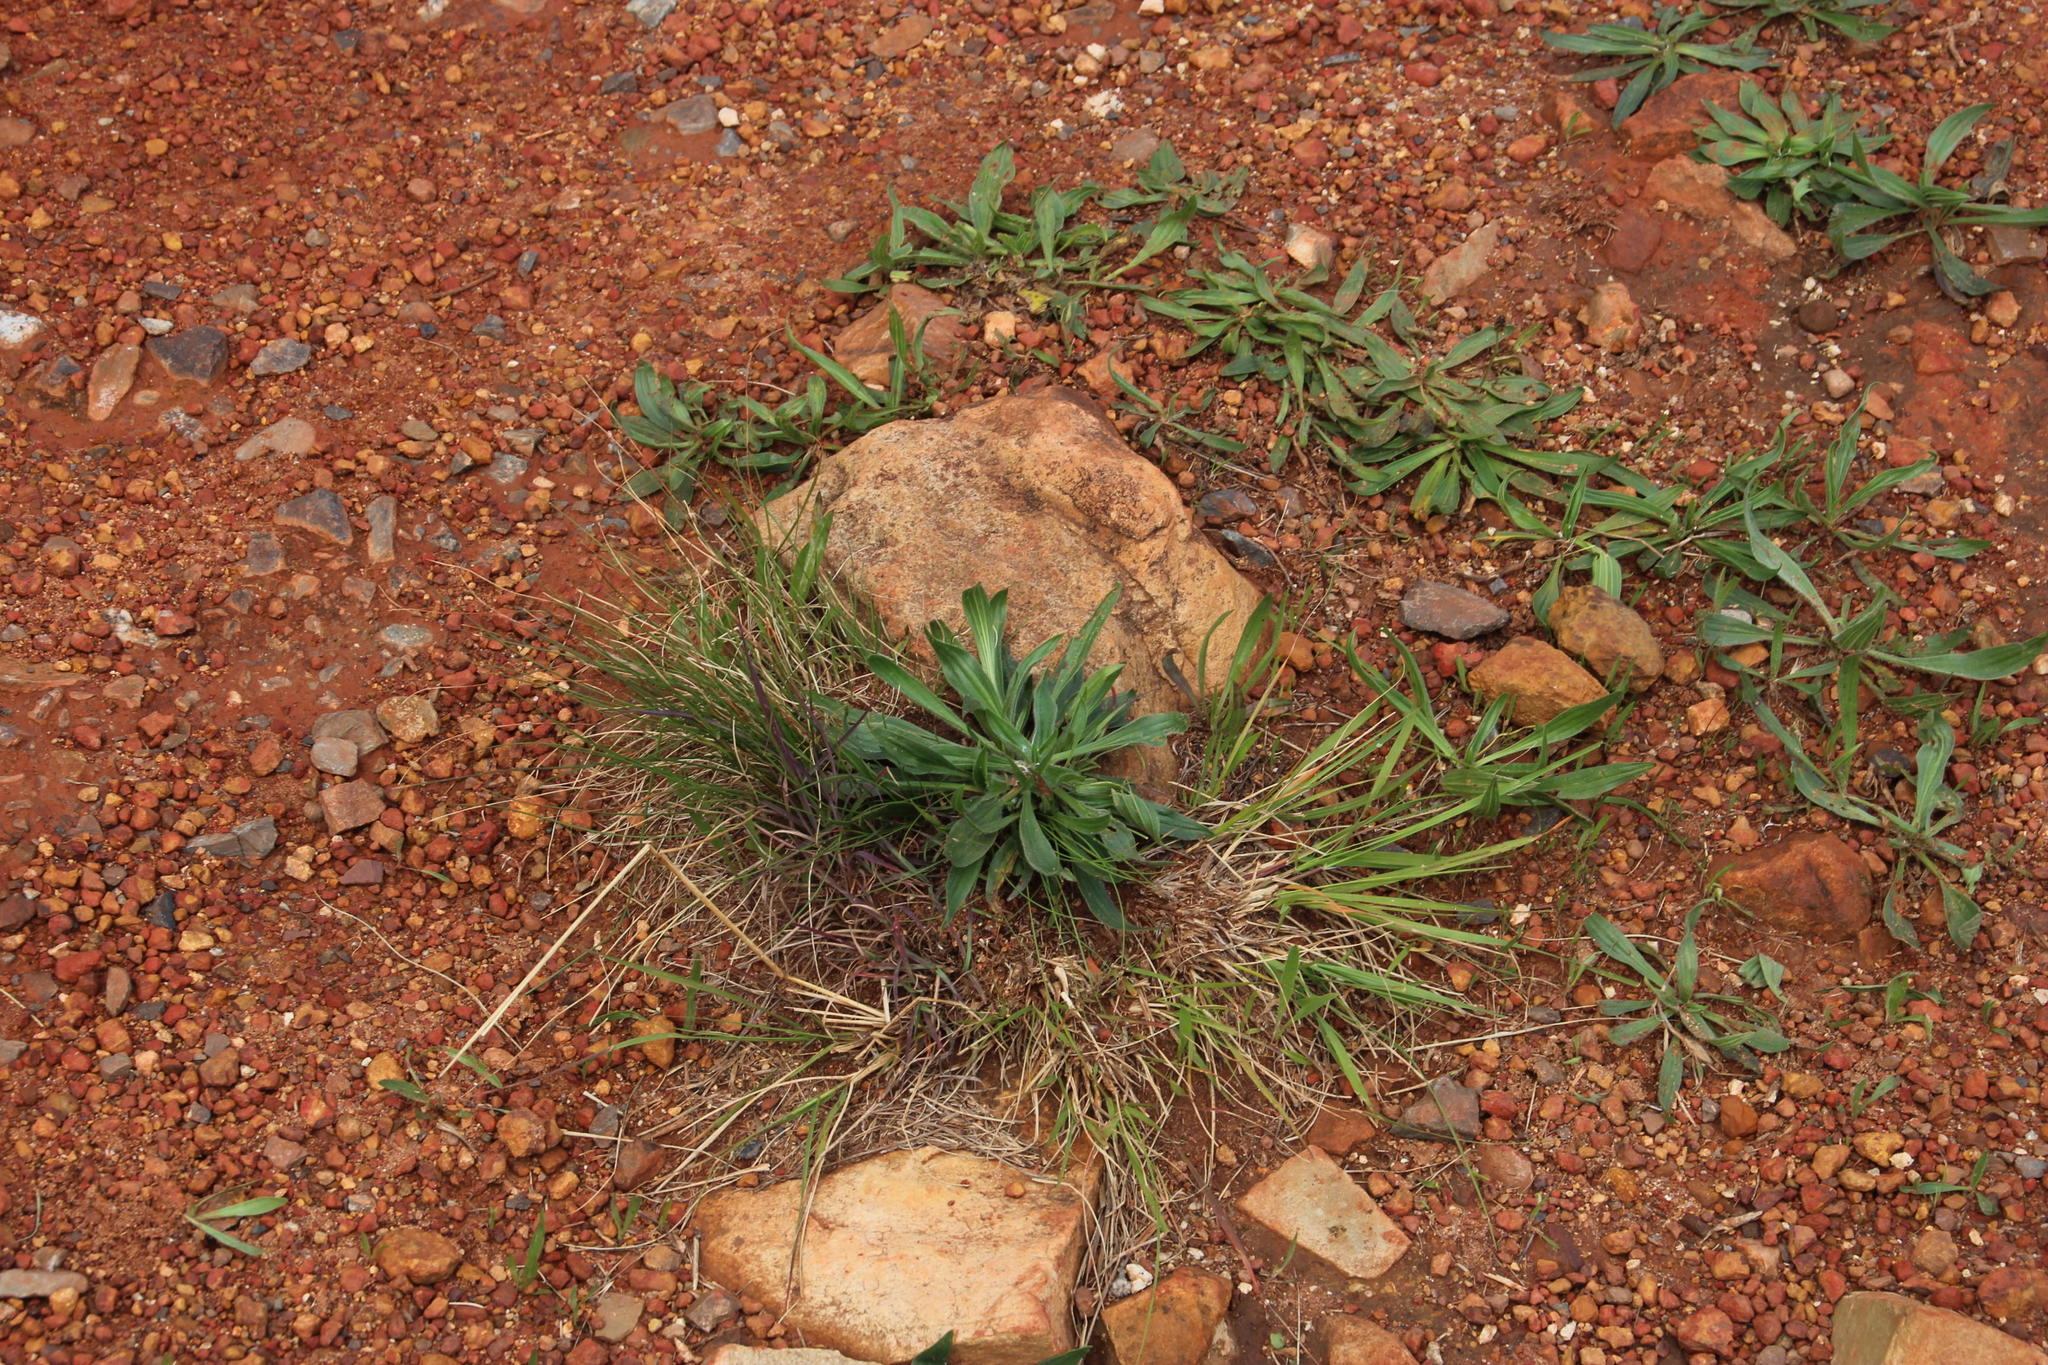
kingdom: Plantae
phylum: Tracheophyta
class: Magnoliopsida
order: Lamiales
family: Plantaginaceae
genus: Plantago
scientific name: Plantago lanceolata
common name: Ribwort plantain
